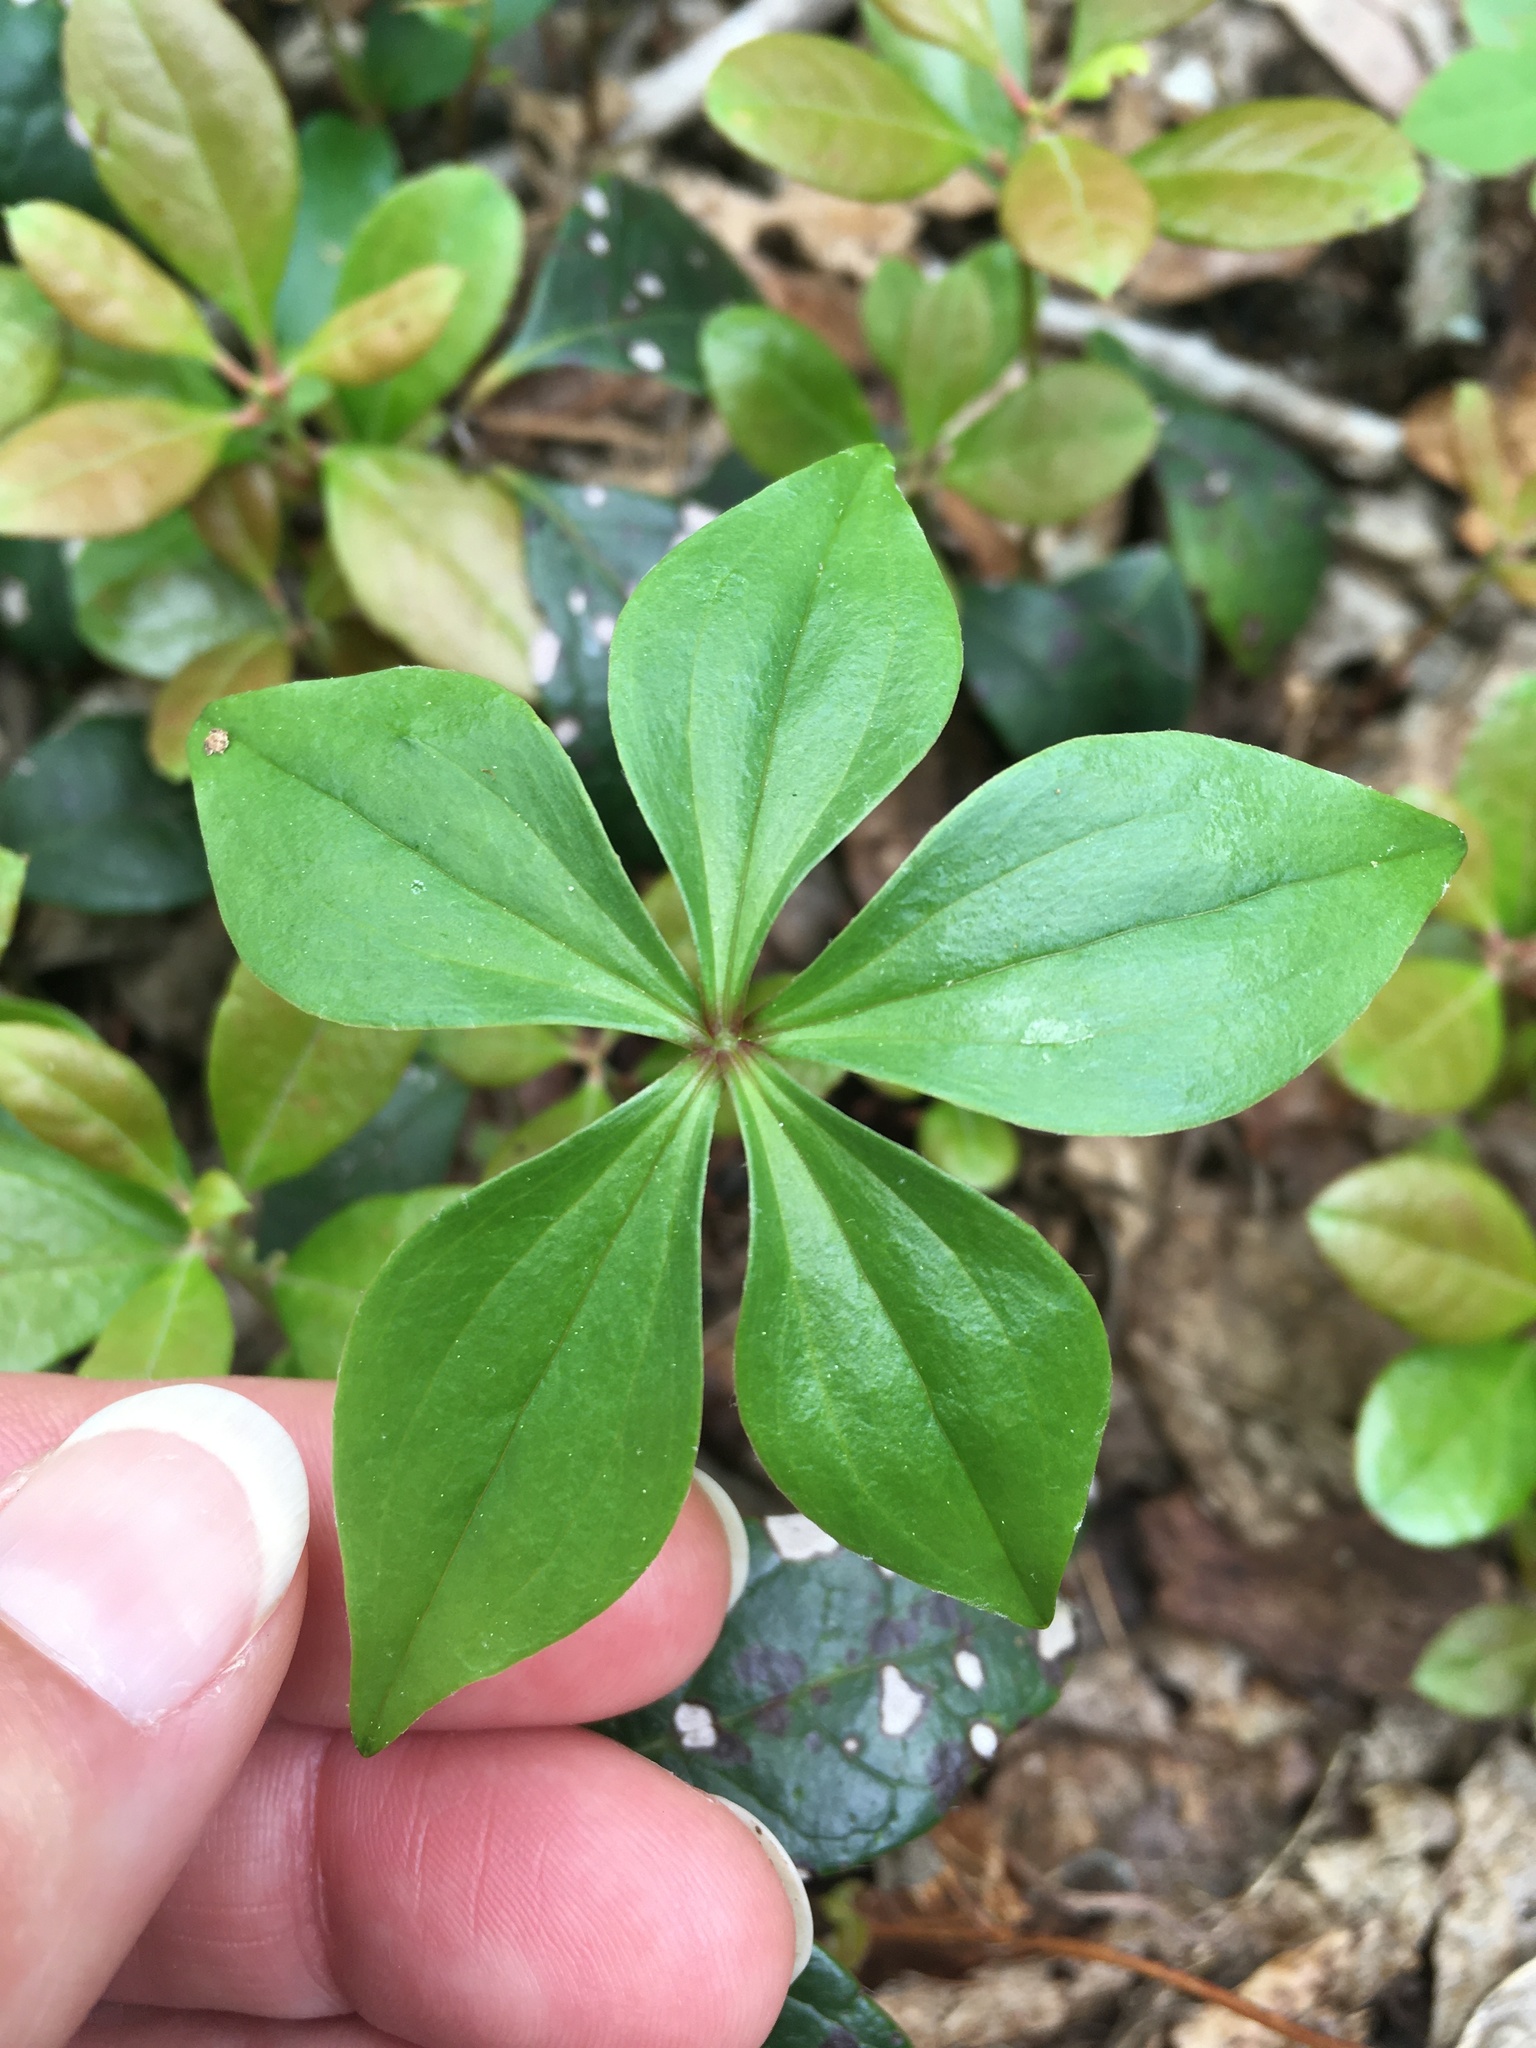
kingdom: Plantae
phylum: Tracheophyta
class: Liliopsida
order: Liliales
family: Liliaceae
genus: Medeola
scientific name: Medeola virginiana
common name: Indian cucumber-root
